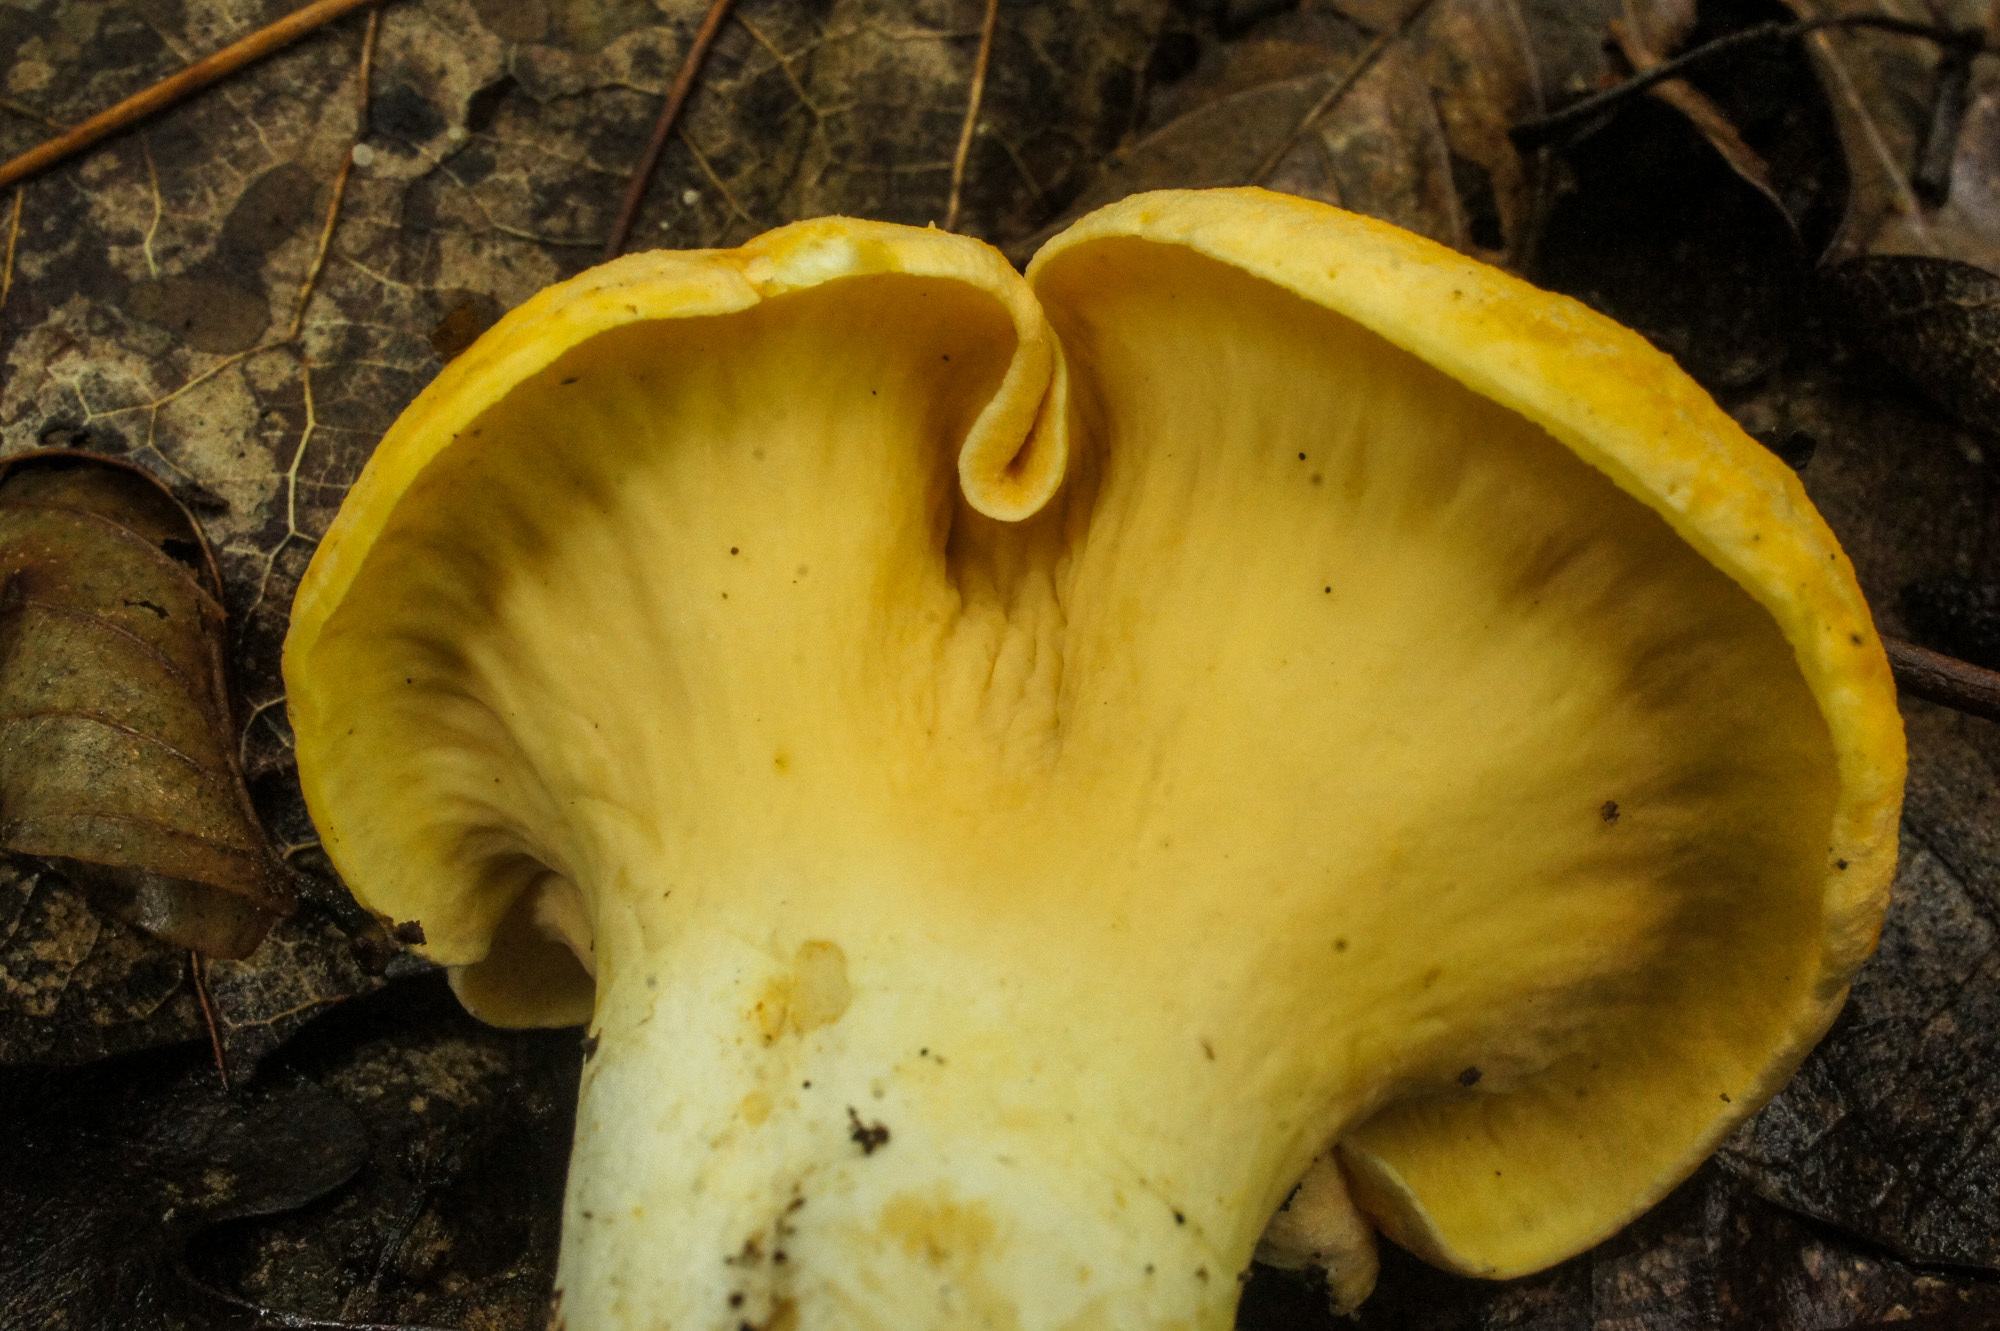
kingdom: Fungi
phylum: Basidiomycota
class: Agaricomycetes
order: Cantharellales
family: Hydnaceae
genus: Cantharellus
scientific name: Cantharellus lateritius
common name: Smooth chanterelle
